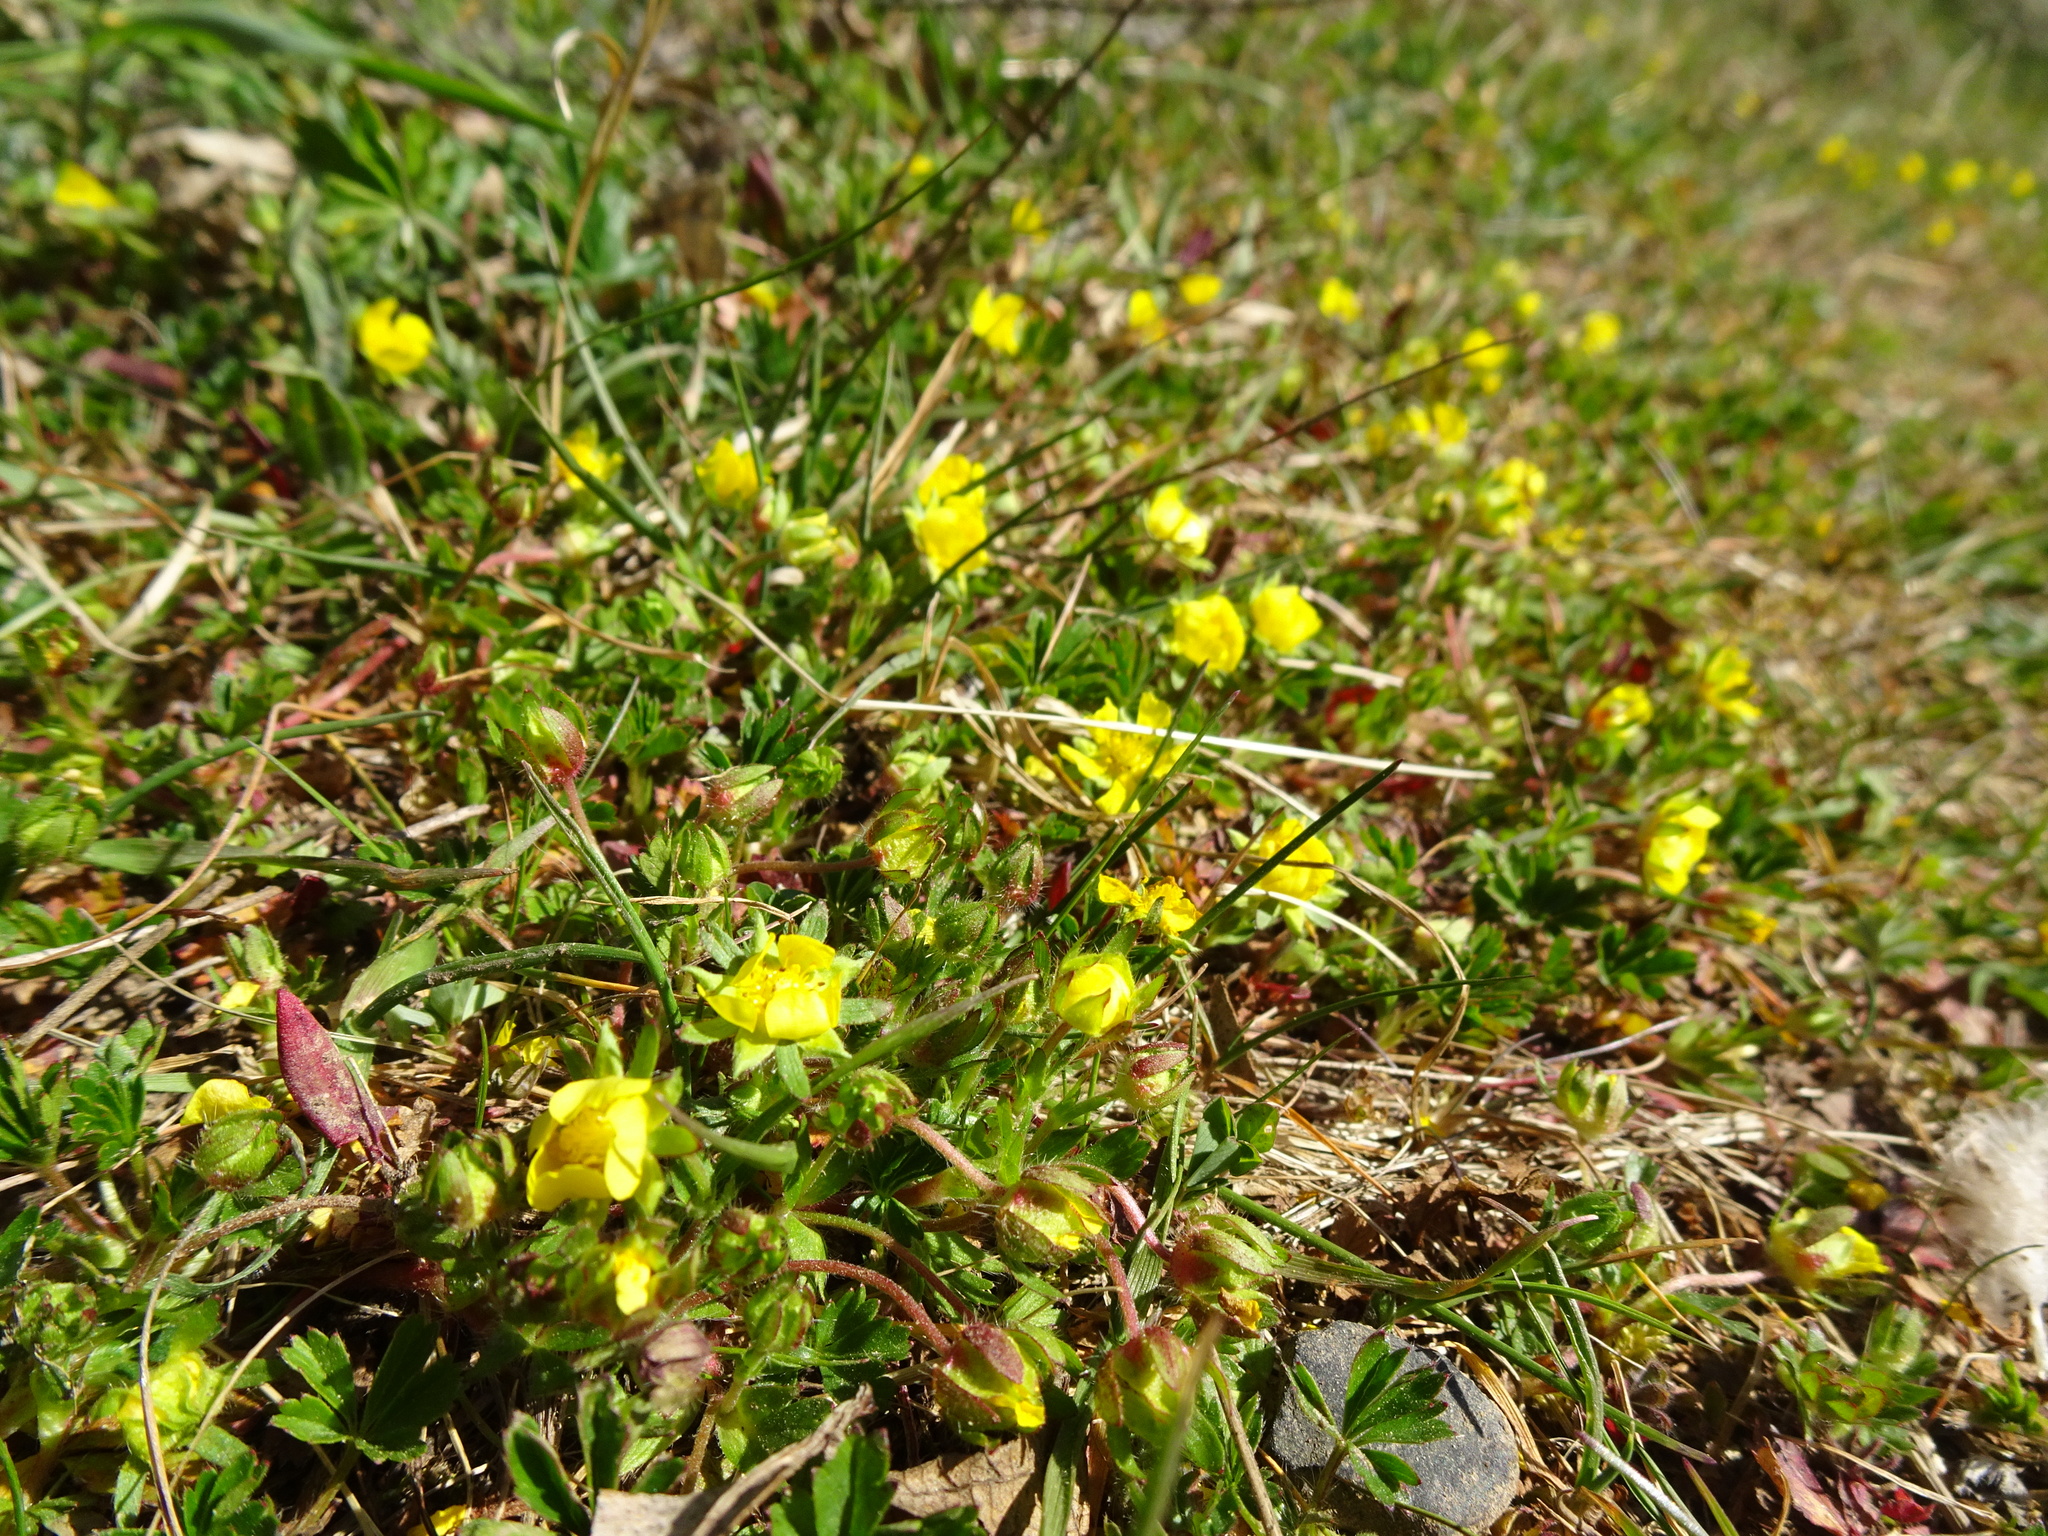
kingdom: Plantae
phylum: Tracheophyta
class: Magnoliopsida
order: Rosales
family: Rosaceae
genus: Potentilla
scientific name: Potentilla verna
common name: Spring cinquefoil
